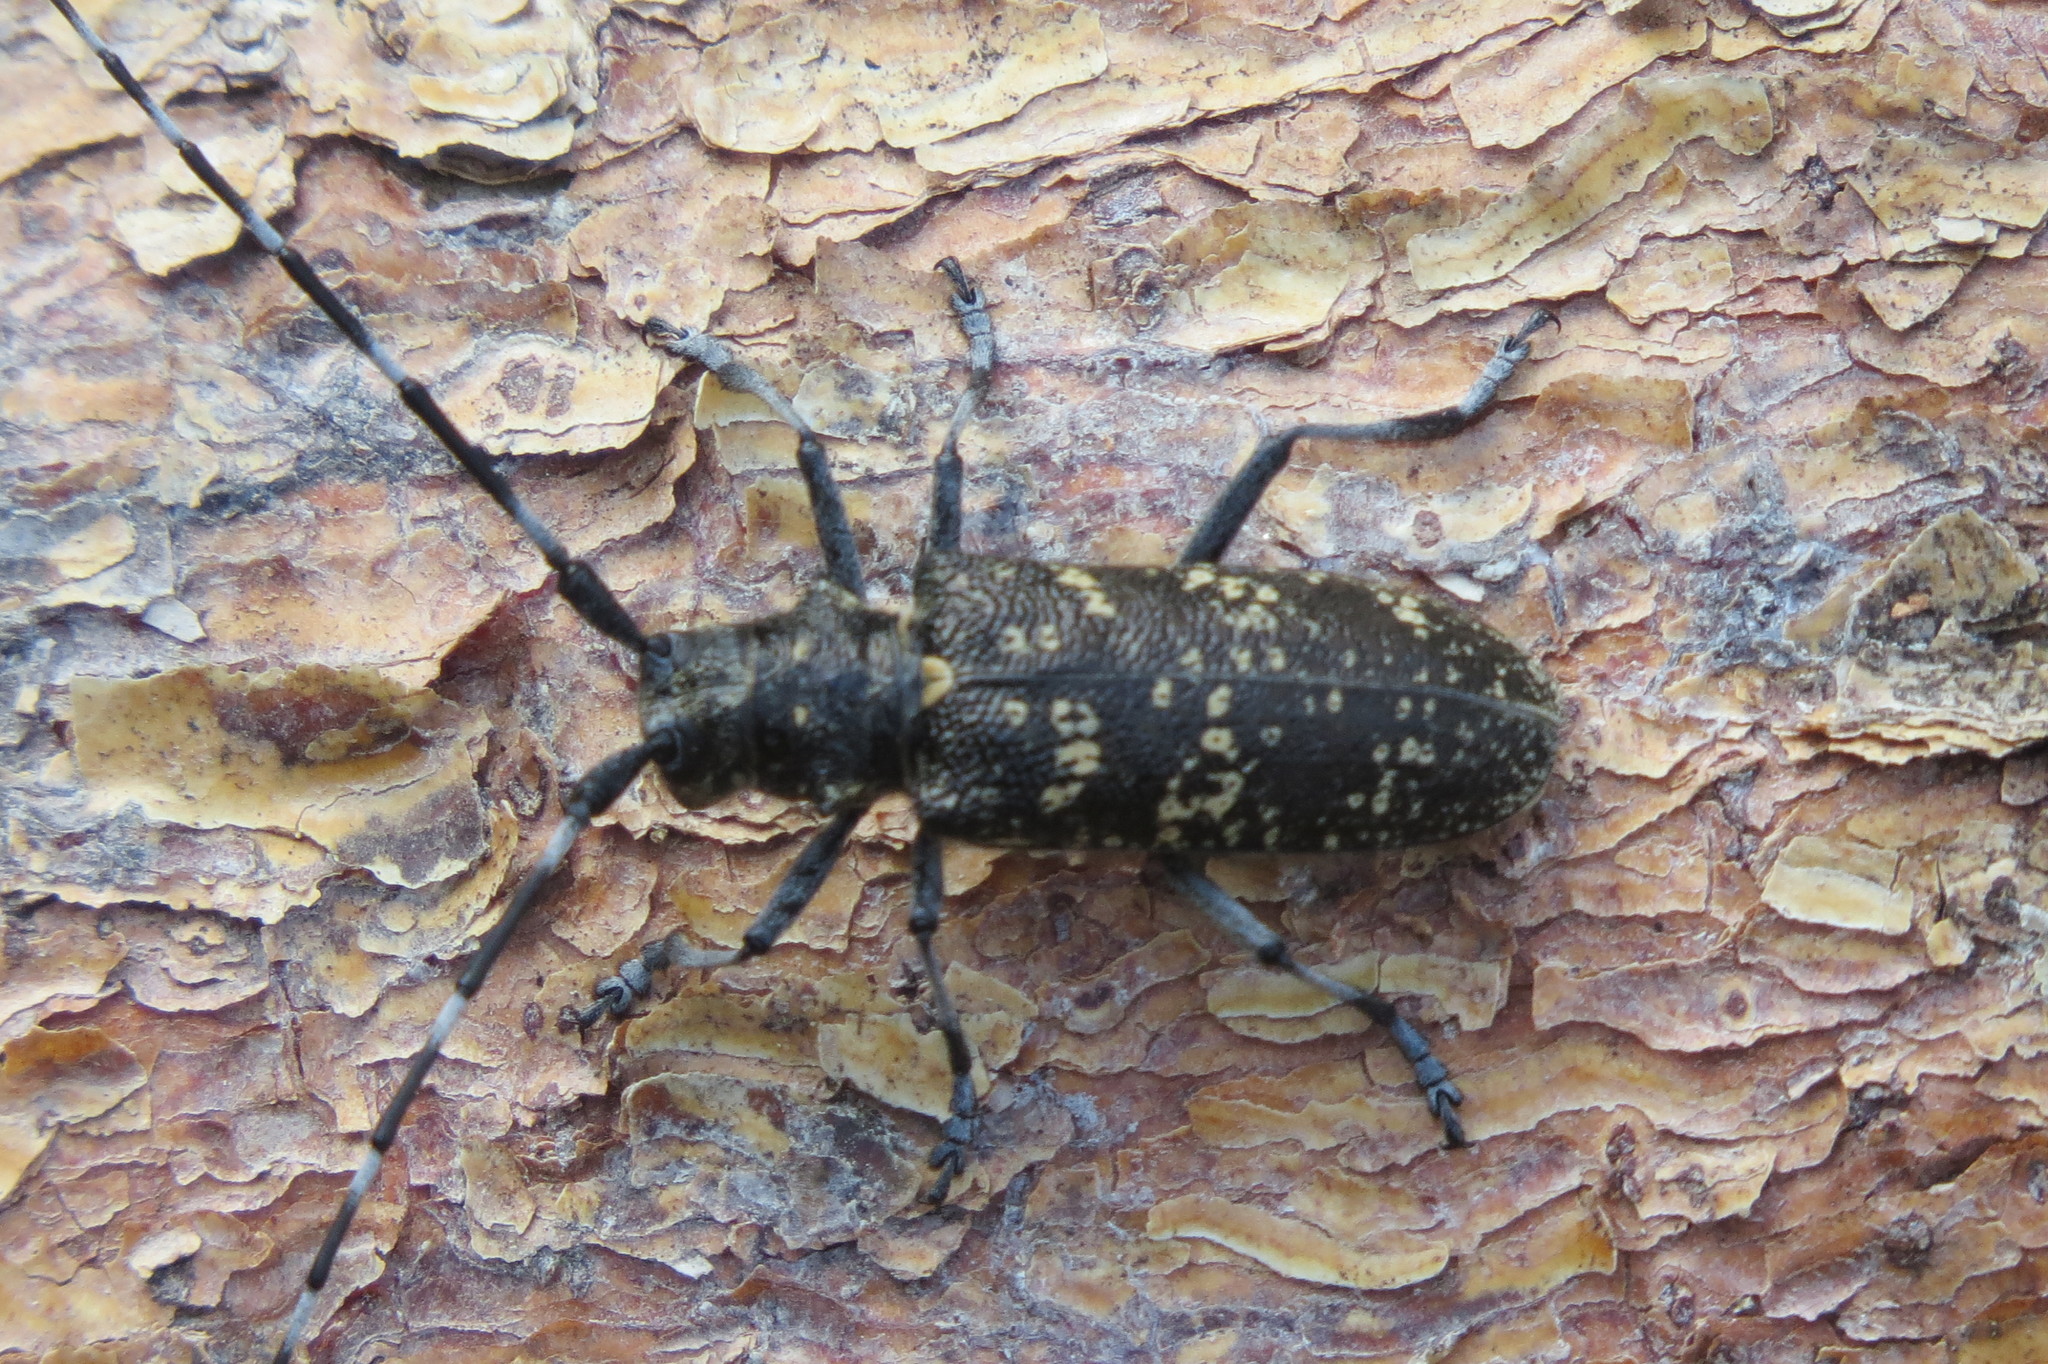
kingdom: Animalia
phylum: Arthropoda
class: Insecta
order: Coleoptera
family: Cerambycidae
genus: Monochamus
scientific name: Monochamus sutor
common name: Pine sawyer
